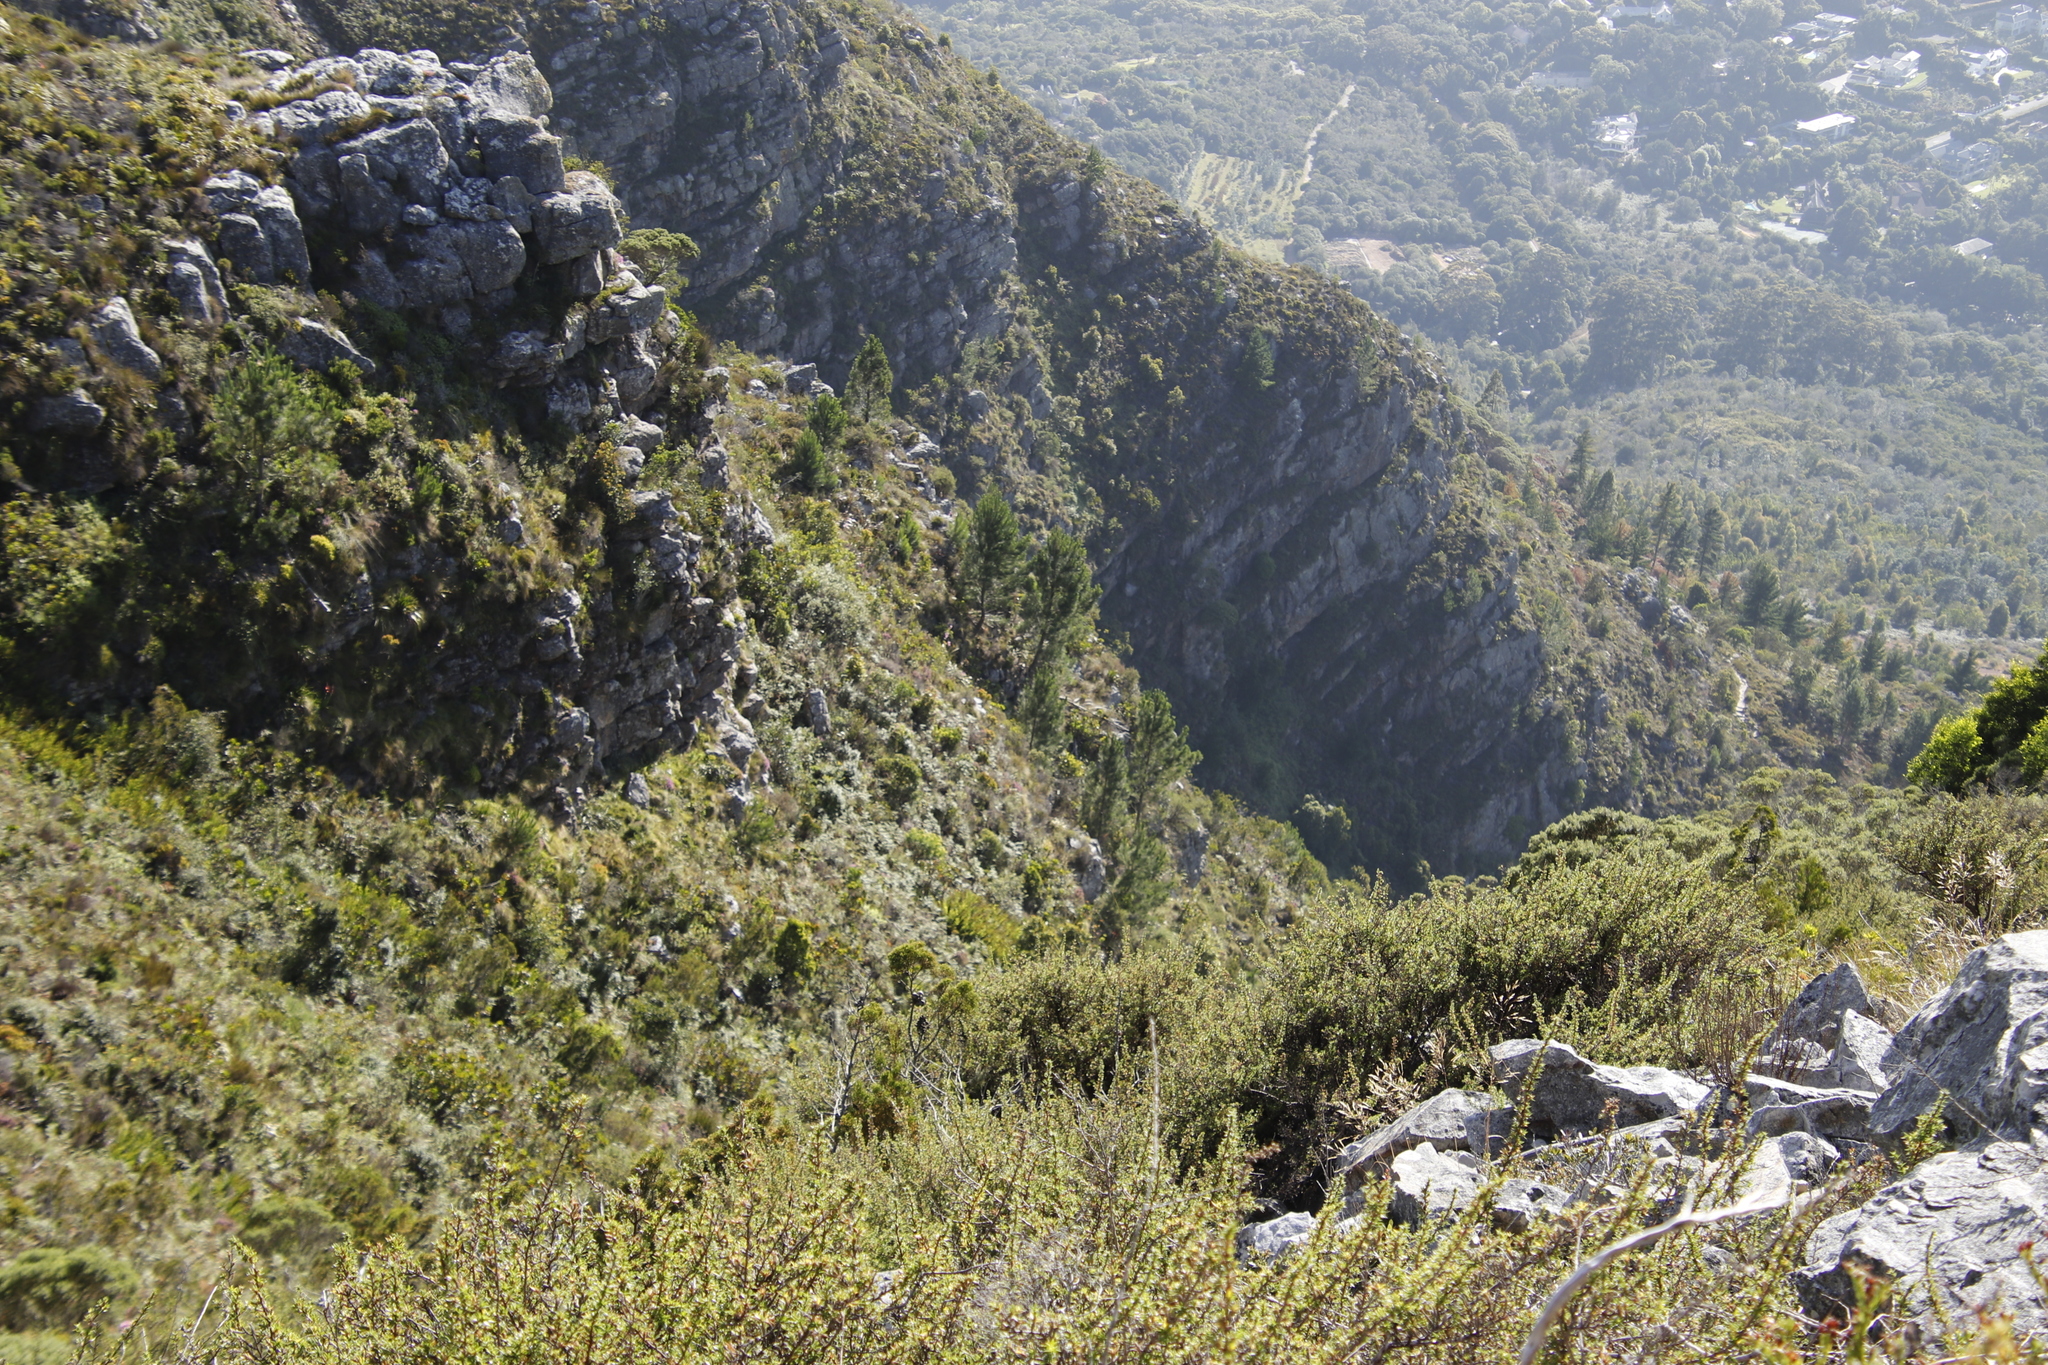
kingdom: Plantae
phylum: Tracheophyta
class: Pinopsida
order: Pinales
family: Pinaceae
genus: Pinus
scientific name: Pinus radiata
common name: Monterey pine
